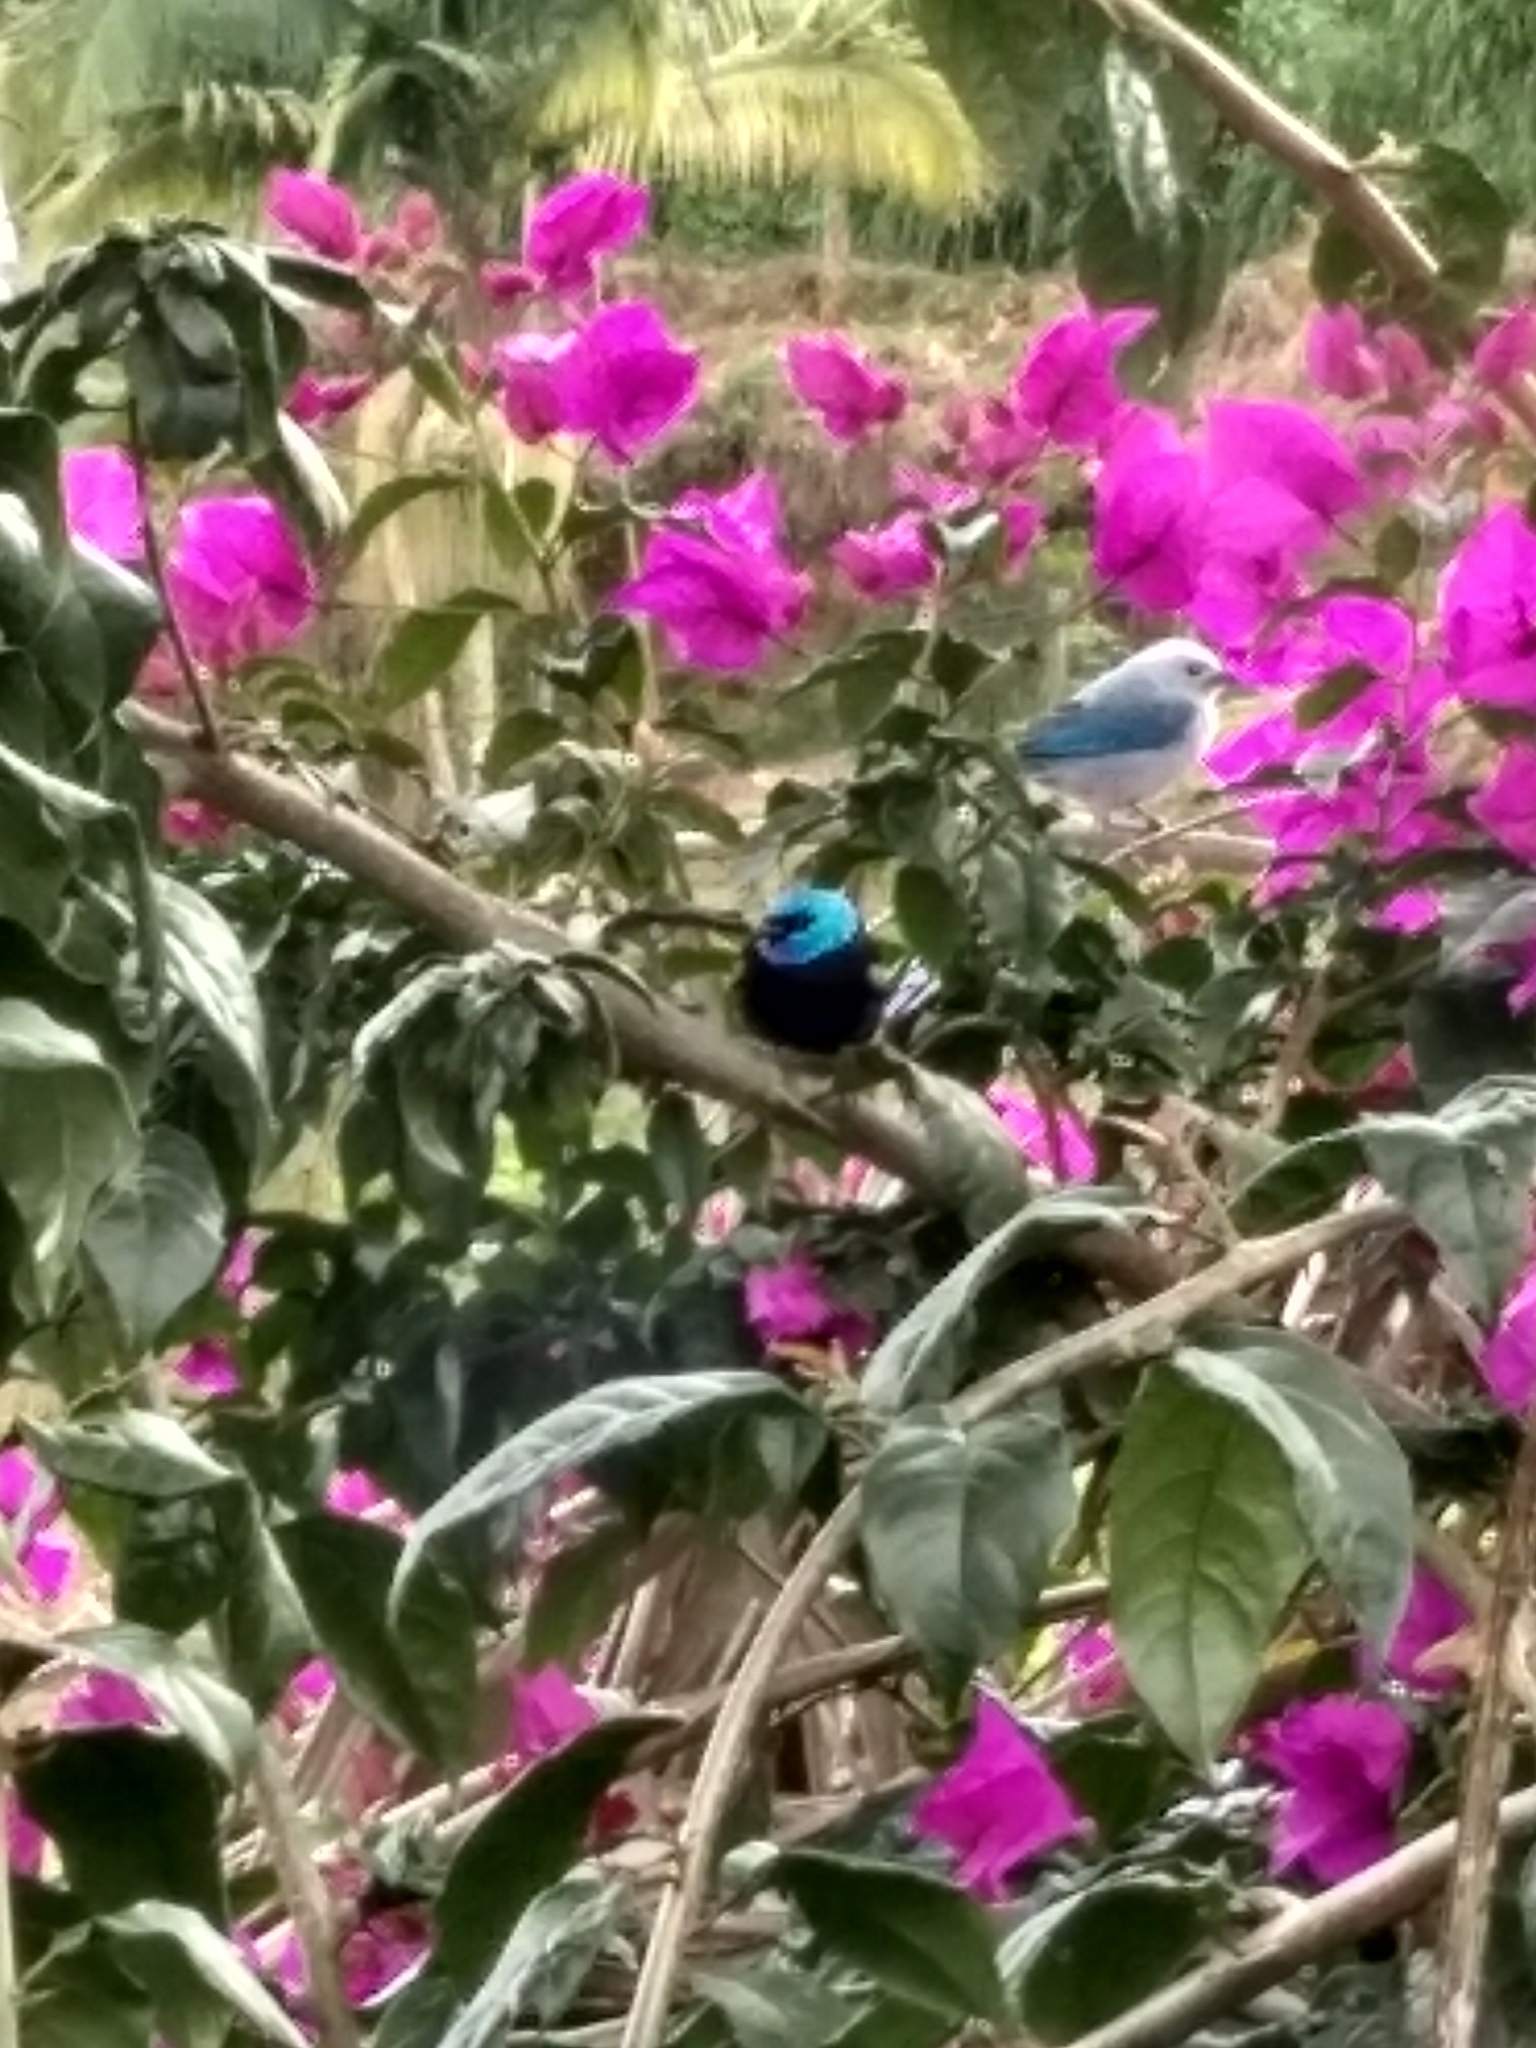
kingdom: Animalia
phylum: Chordata
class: Aves
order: Passeriformes
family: Thraupidae
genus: Stilpnia
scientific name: Stilpnia cyanicollis
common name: Blue-necked tanager
